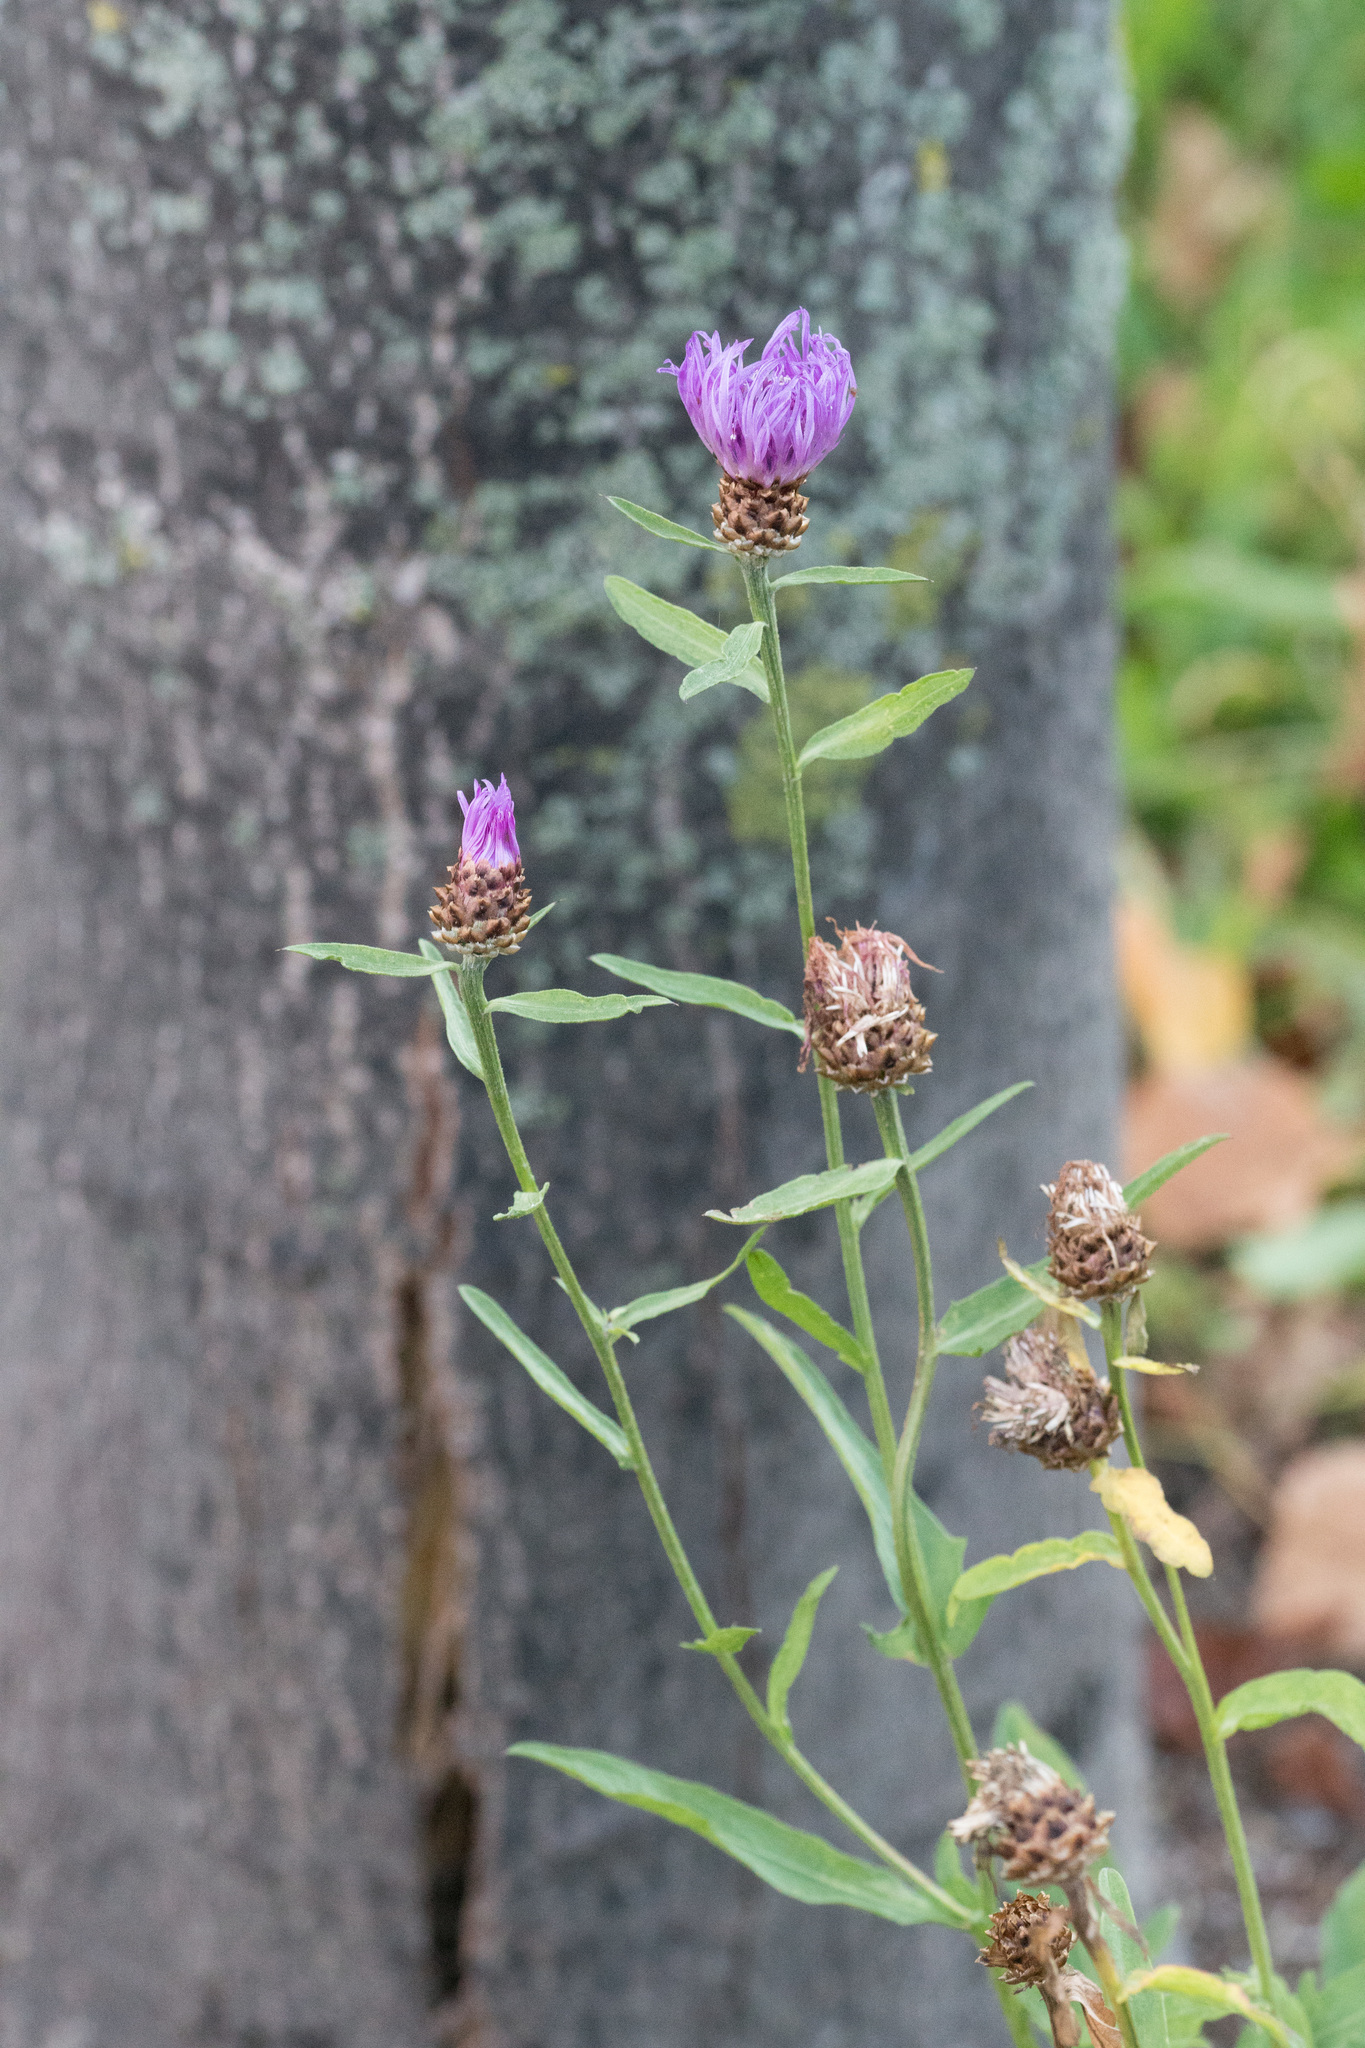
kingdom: Plantae
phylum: Tracheophyta
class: Magnoliopsida
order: Asterales
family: Asteraceae
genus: Centaurea
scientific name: Centaurea jacea
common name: Brown knapweed
